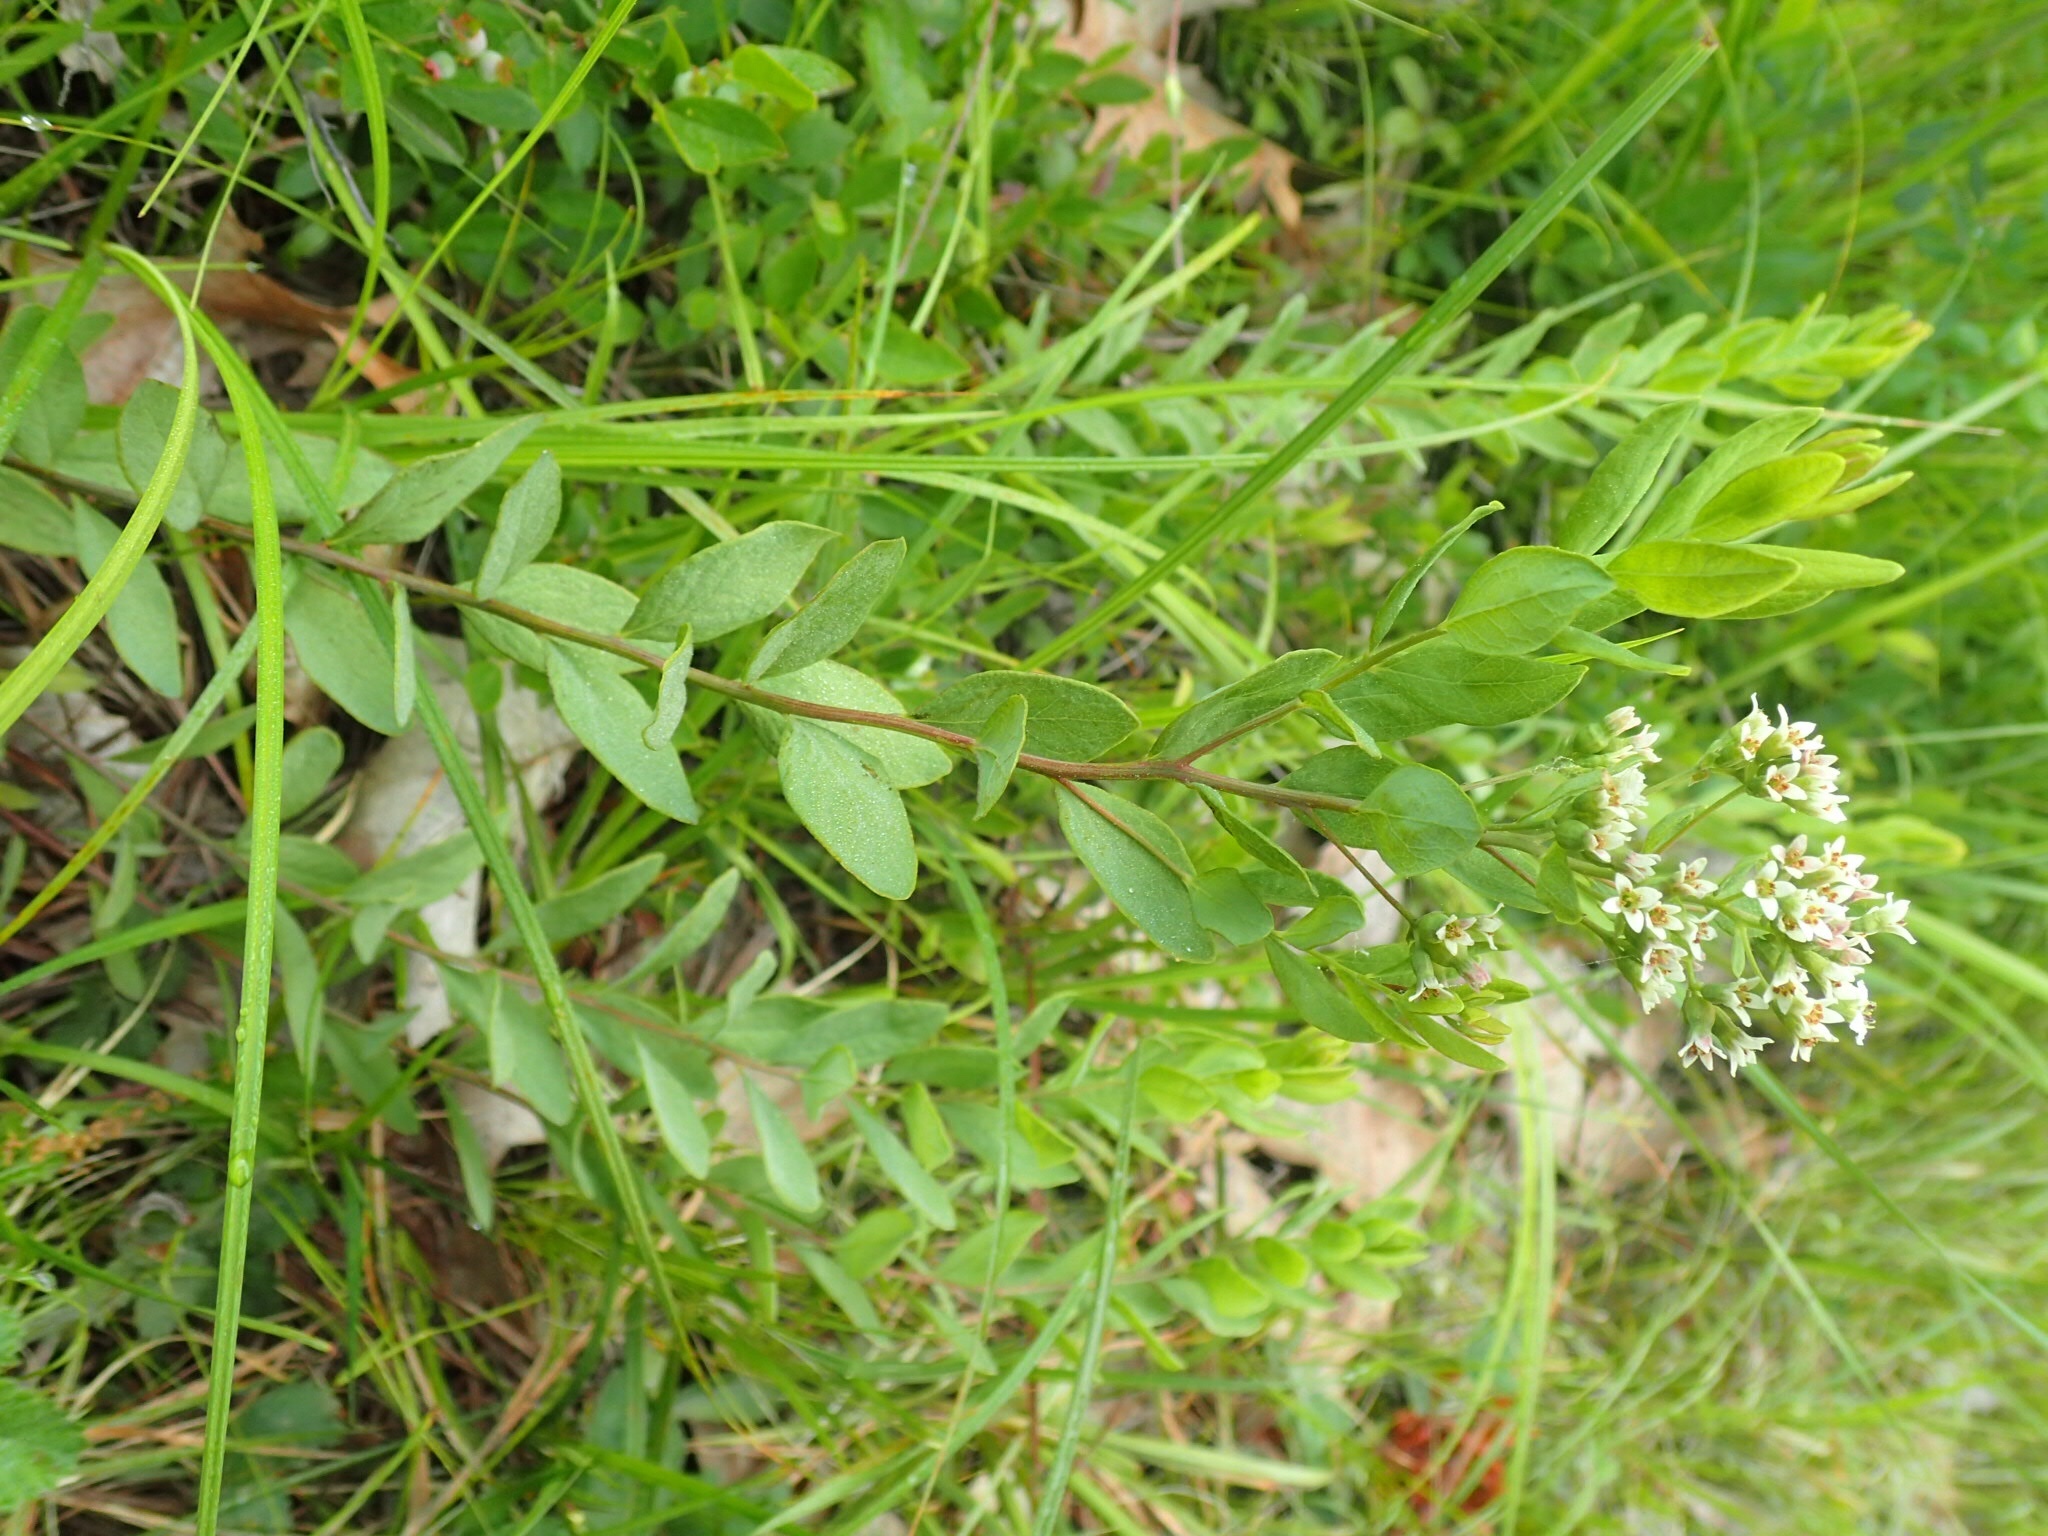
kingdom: Plantae
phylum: Tracheophyta
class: Magnoliopsida
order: Santalales
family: Comandraceae
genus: Comandra
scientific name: Comandra umbellata
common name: Bastard toadflax
